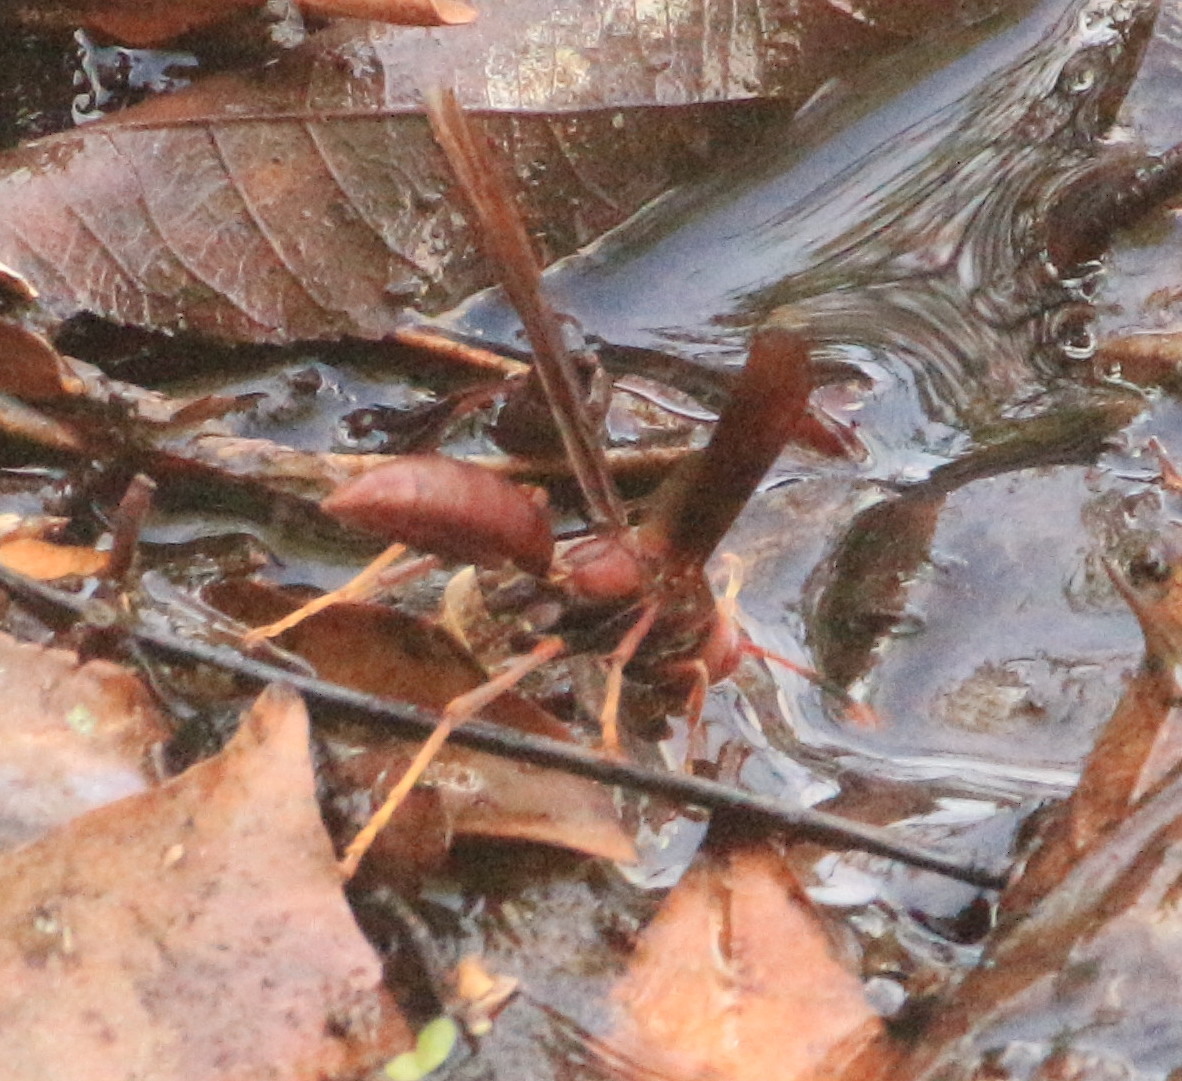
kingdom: Animalia
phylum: Arthropoda
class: Insecta
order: Hymenoptera
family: Eumenidae
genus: Polistes
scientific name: Polistes canadensis
